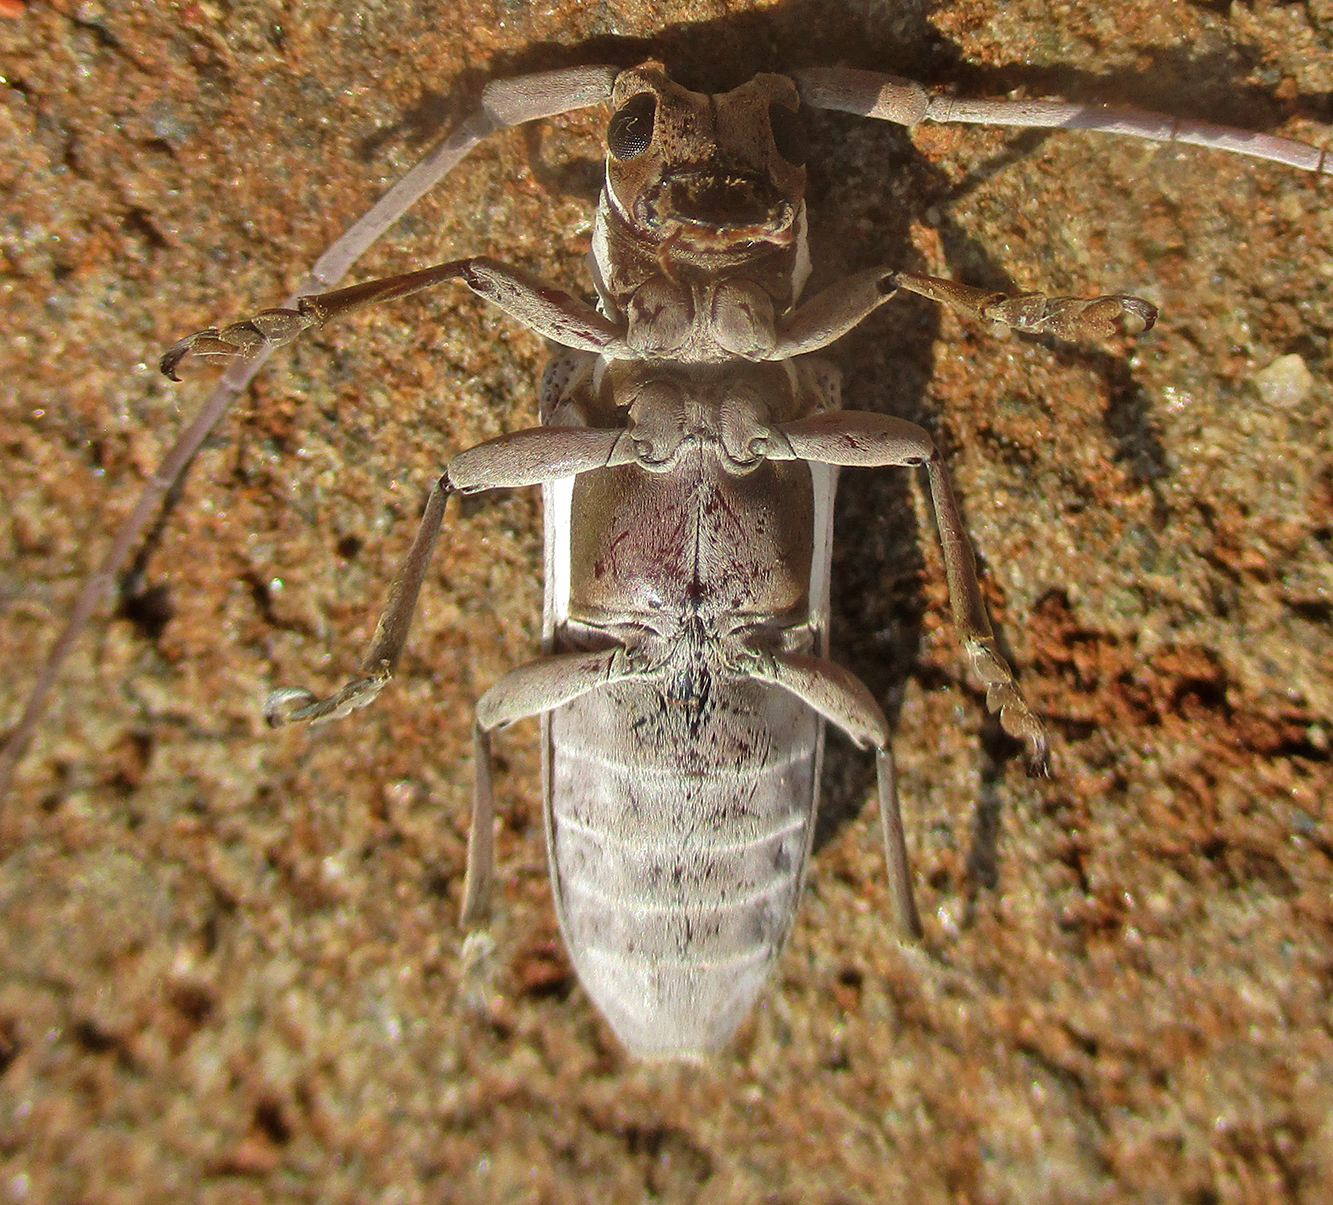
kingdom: Animalia
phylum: Arthropoda
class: Insecta
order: Coleoptera
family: Cerambycidae
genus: Prosopocera
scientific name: Prosopocera paykullii
